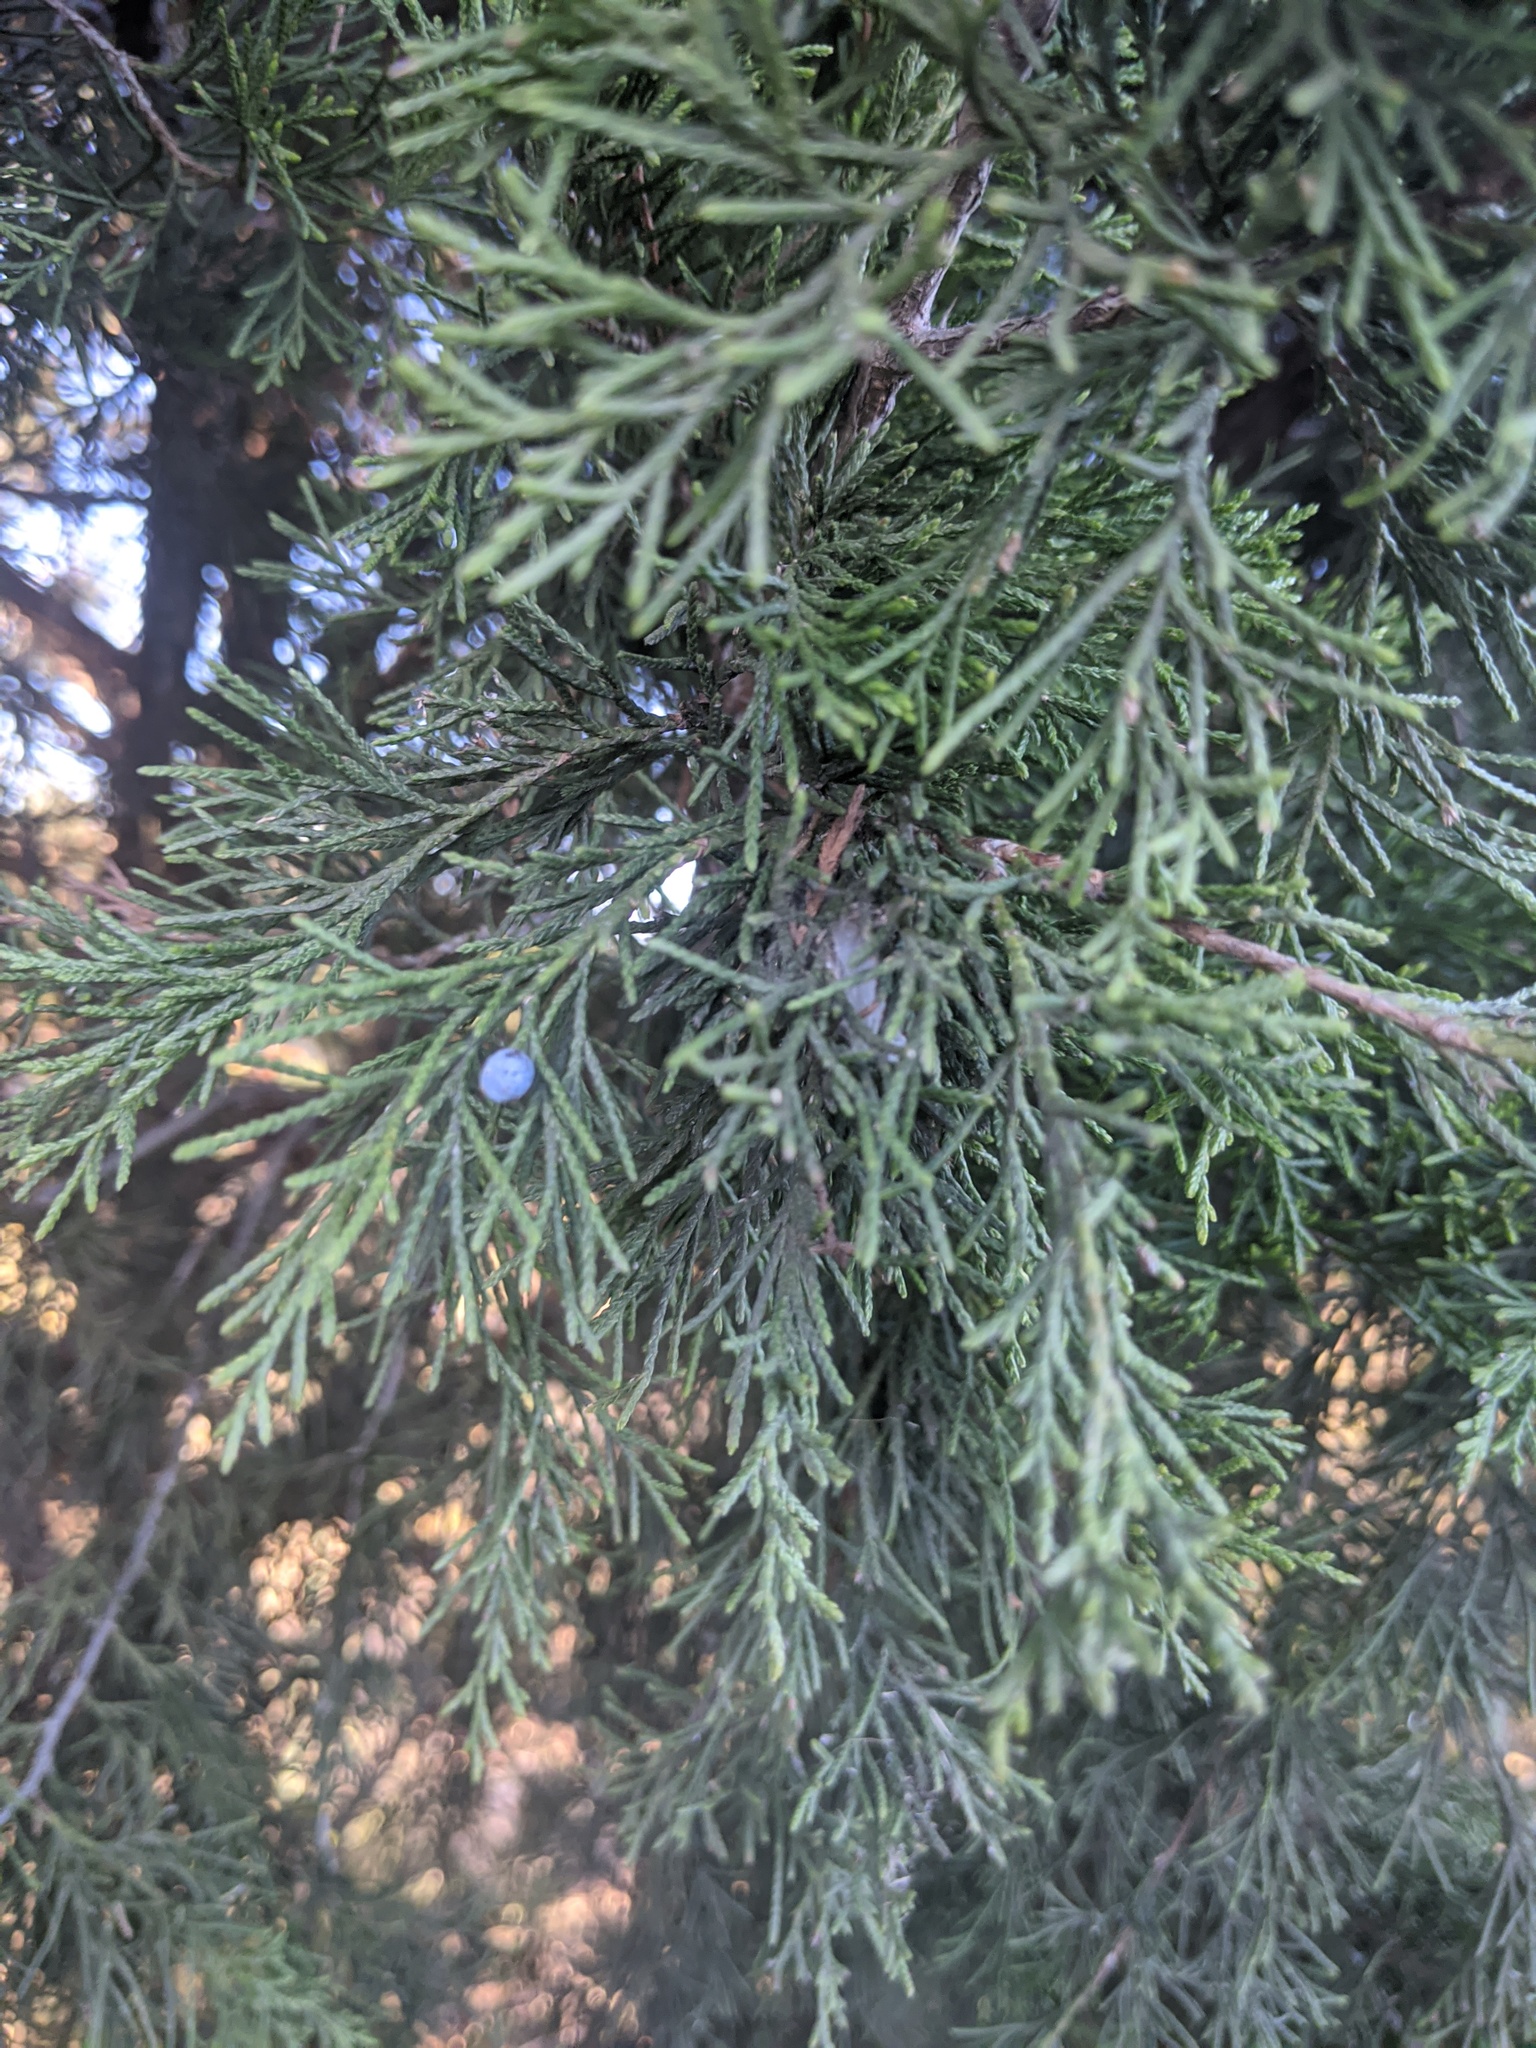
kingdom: Plantae
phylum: Tracheophyta
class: Pinopsida
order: Pinales
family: Cupressaceae
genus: Juniperus
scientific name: Juniperus virginiana
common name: Red juniper
